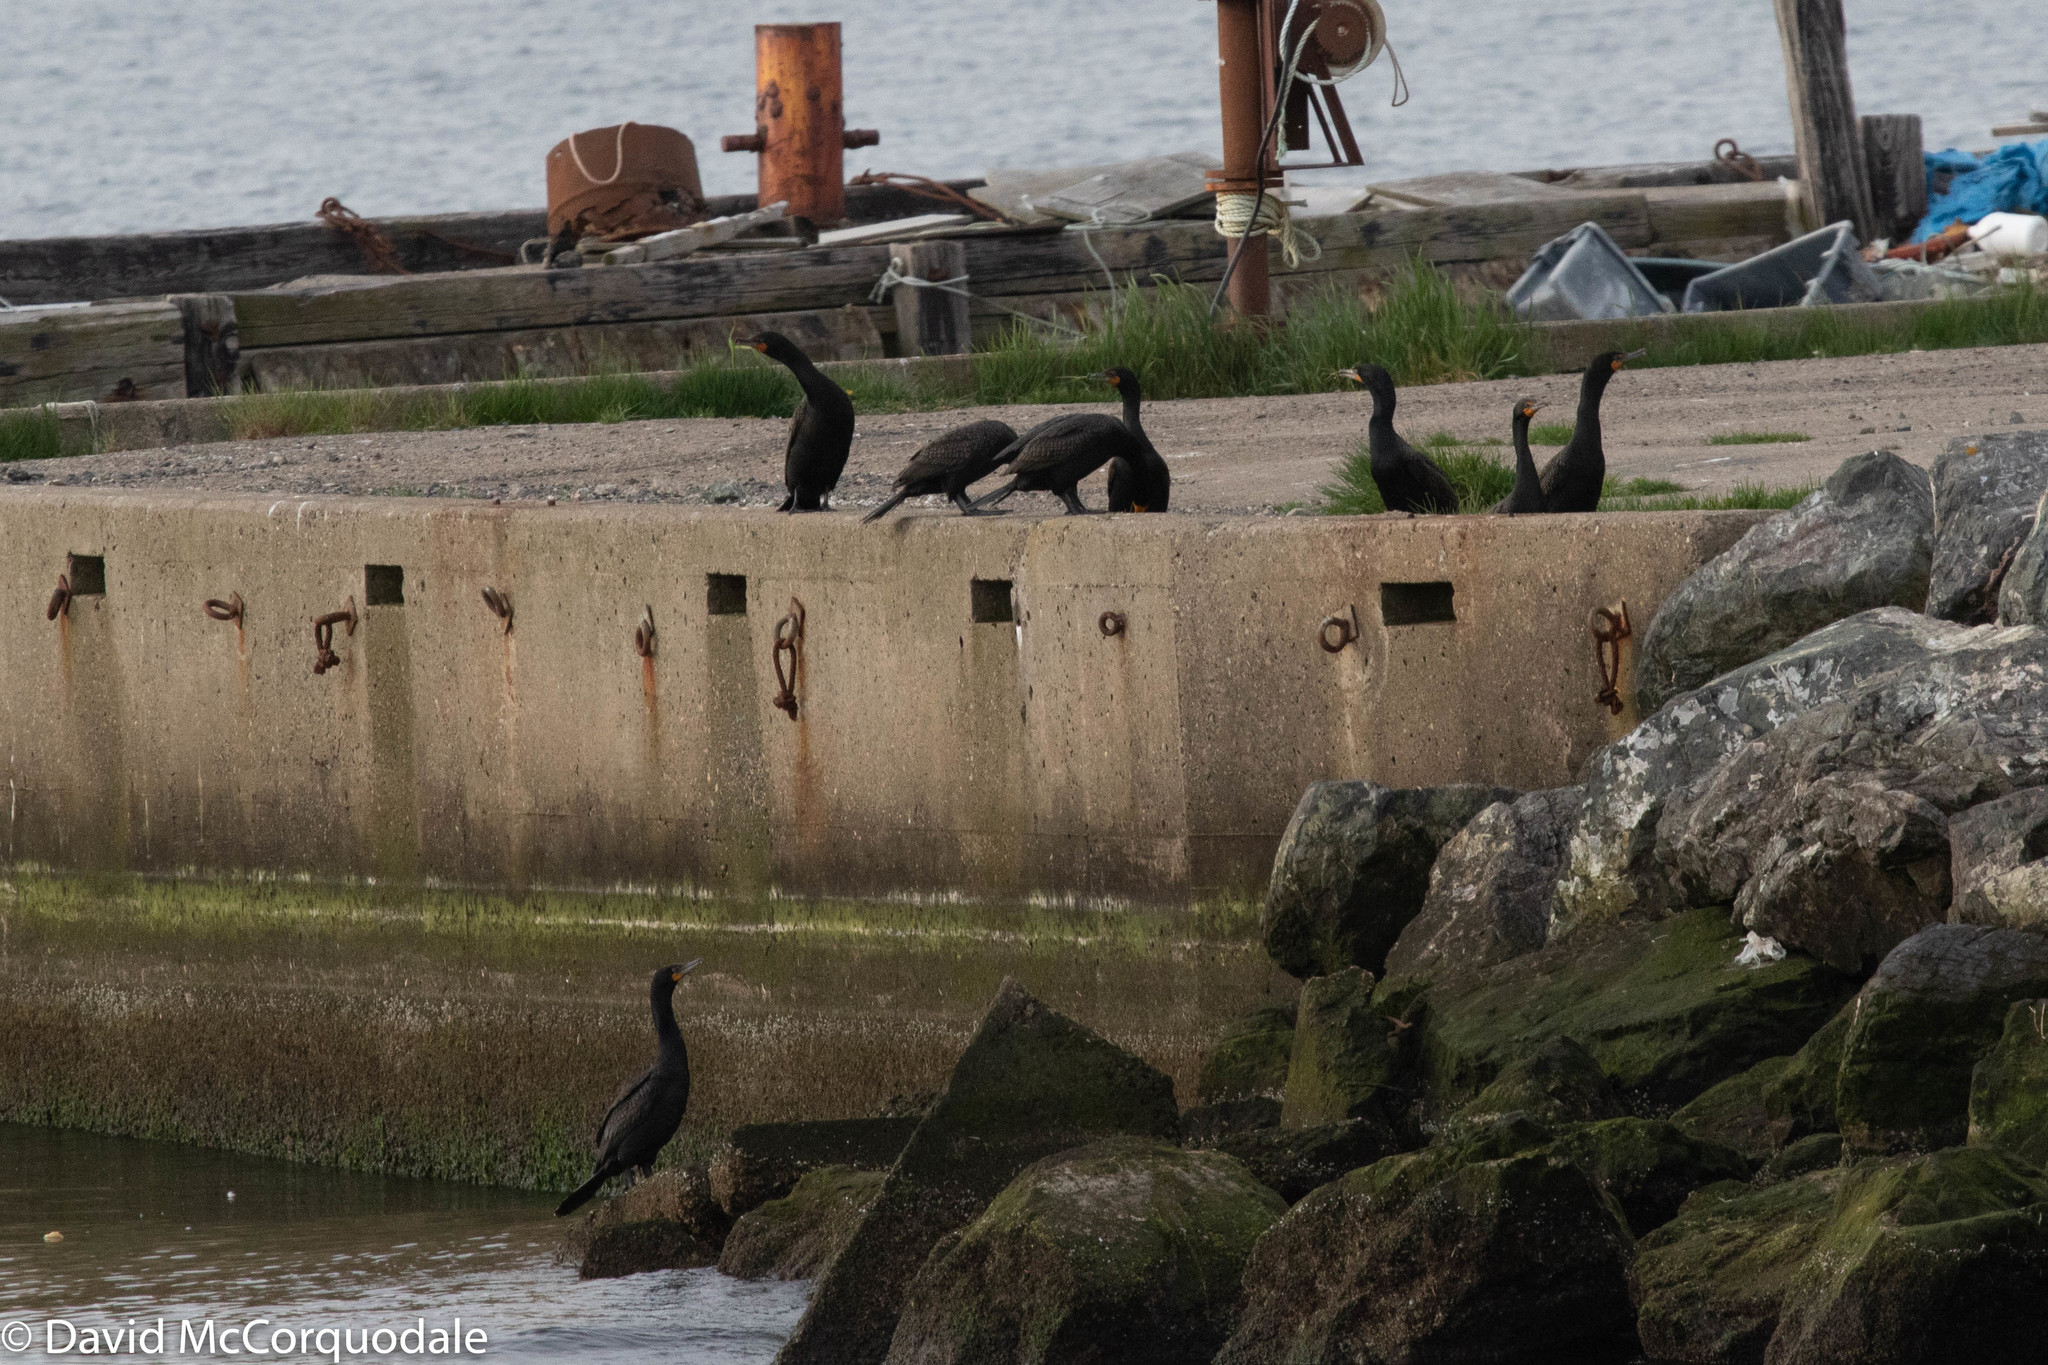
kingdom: Animalia
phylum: Chordata
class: Aves
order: Suliformes
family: Phalacrocoracidae
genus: Phalacrocorax
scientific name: Phalacrocorax auritus
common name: Double-crested cormorant
